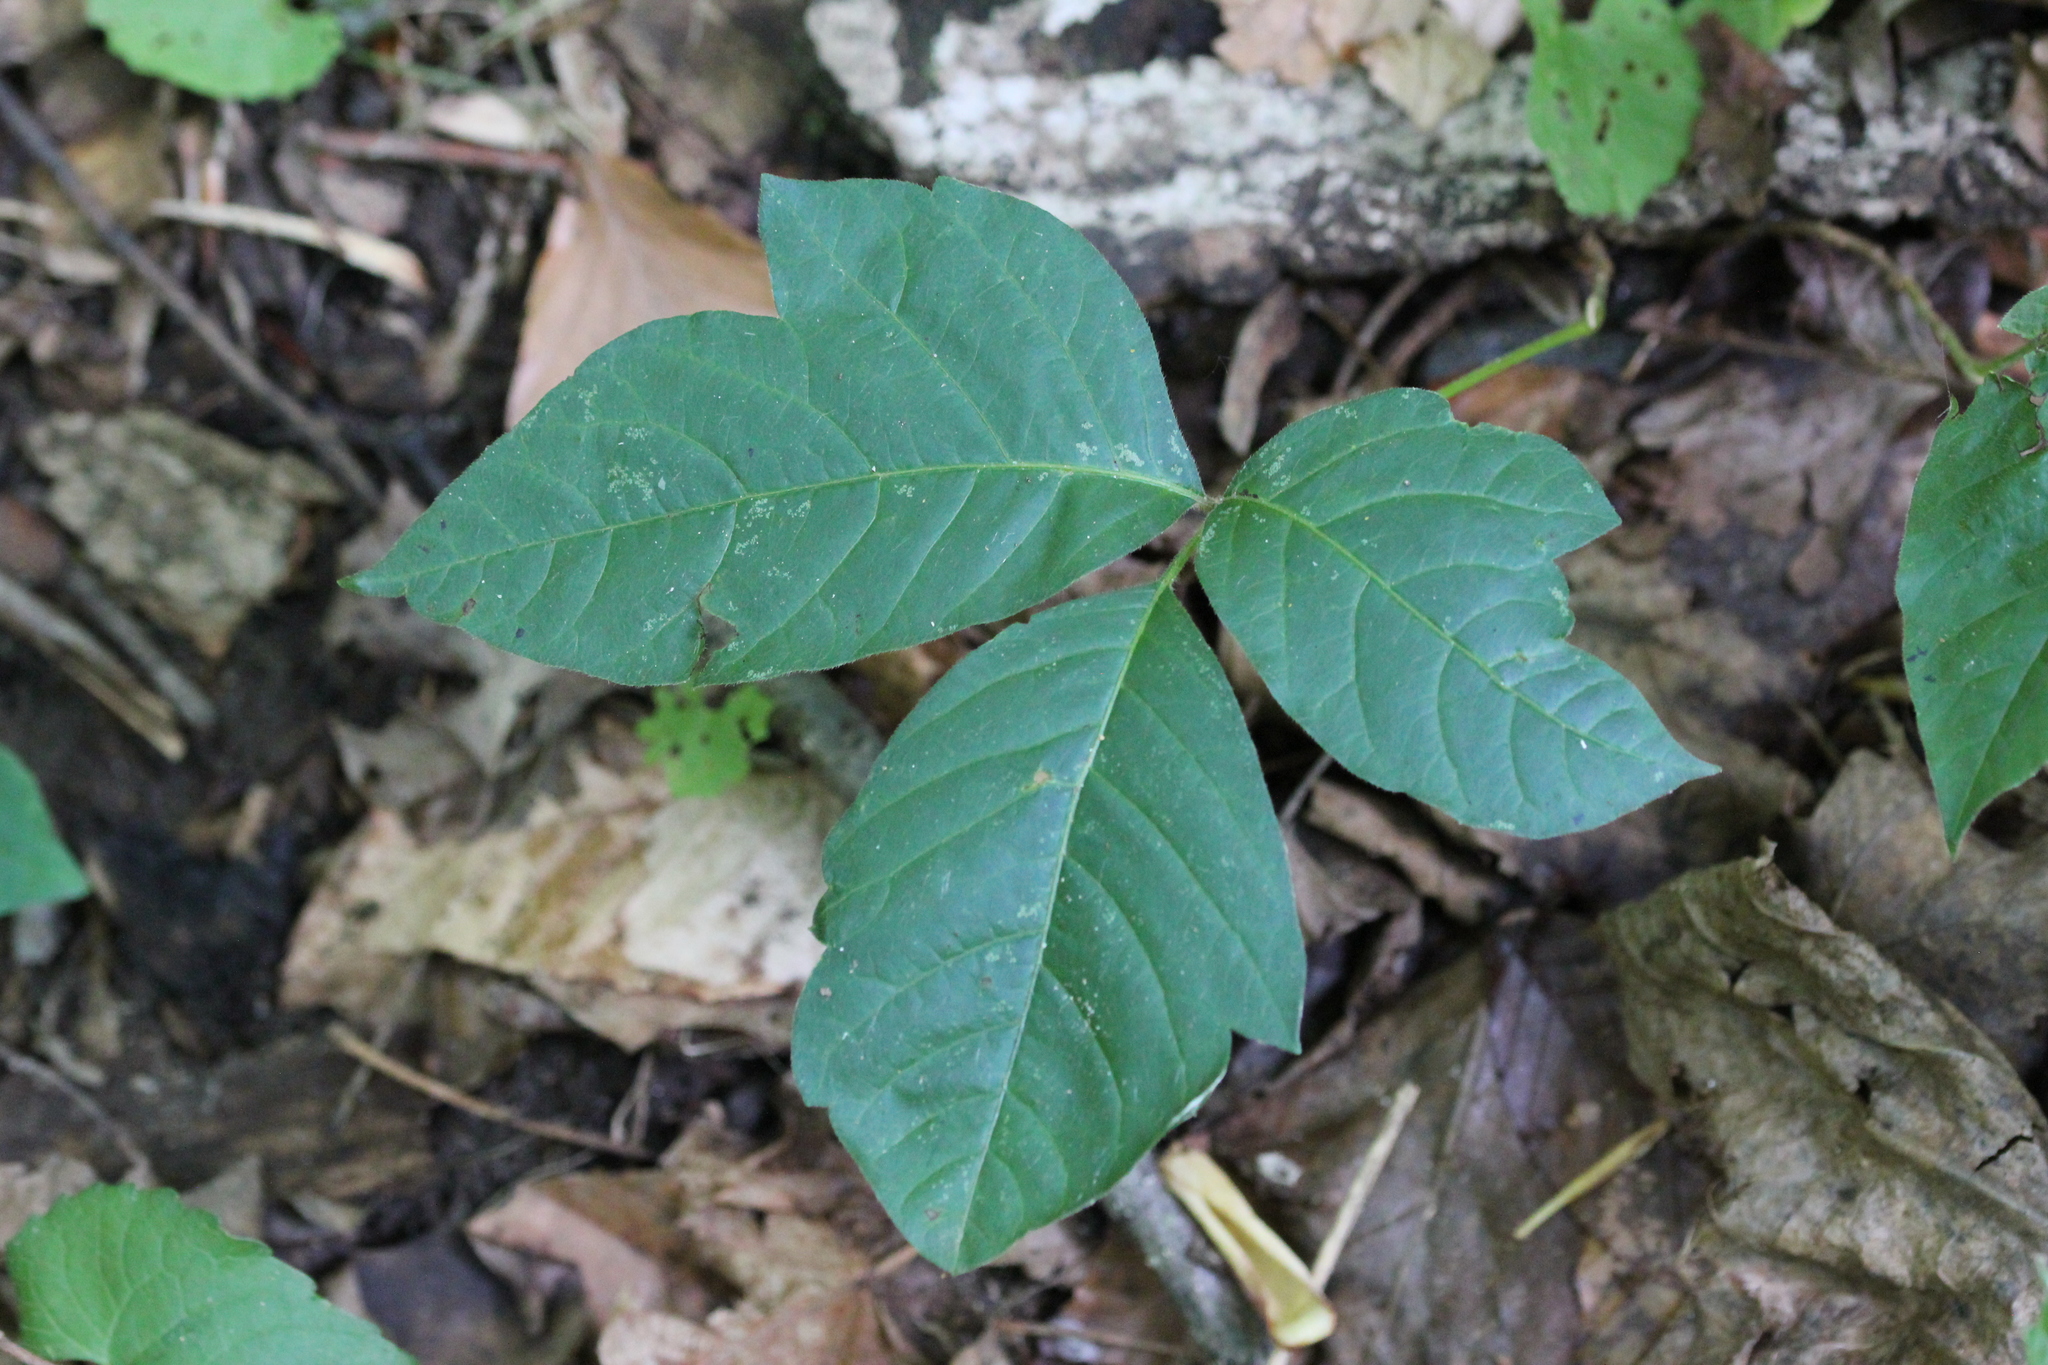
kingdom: Plantae
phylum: Tracheophyta
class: Magnoliopsida
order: Sapindales
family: Anacardiaceae
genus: Toxicodendron
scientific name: Toxicodendron radicans
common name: Poison ivy
